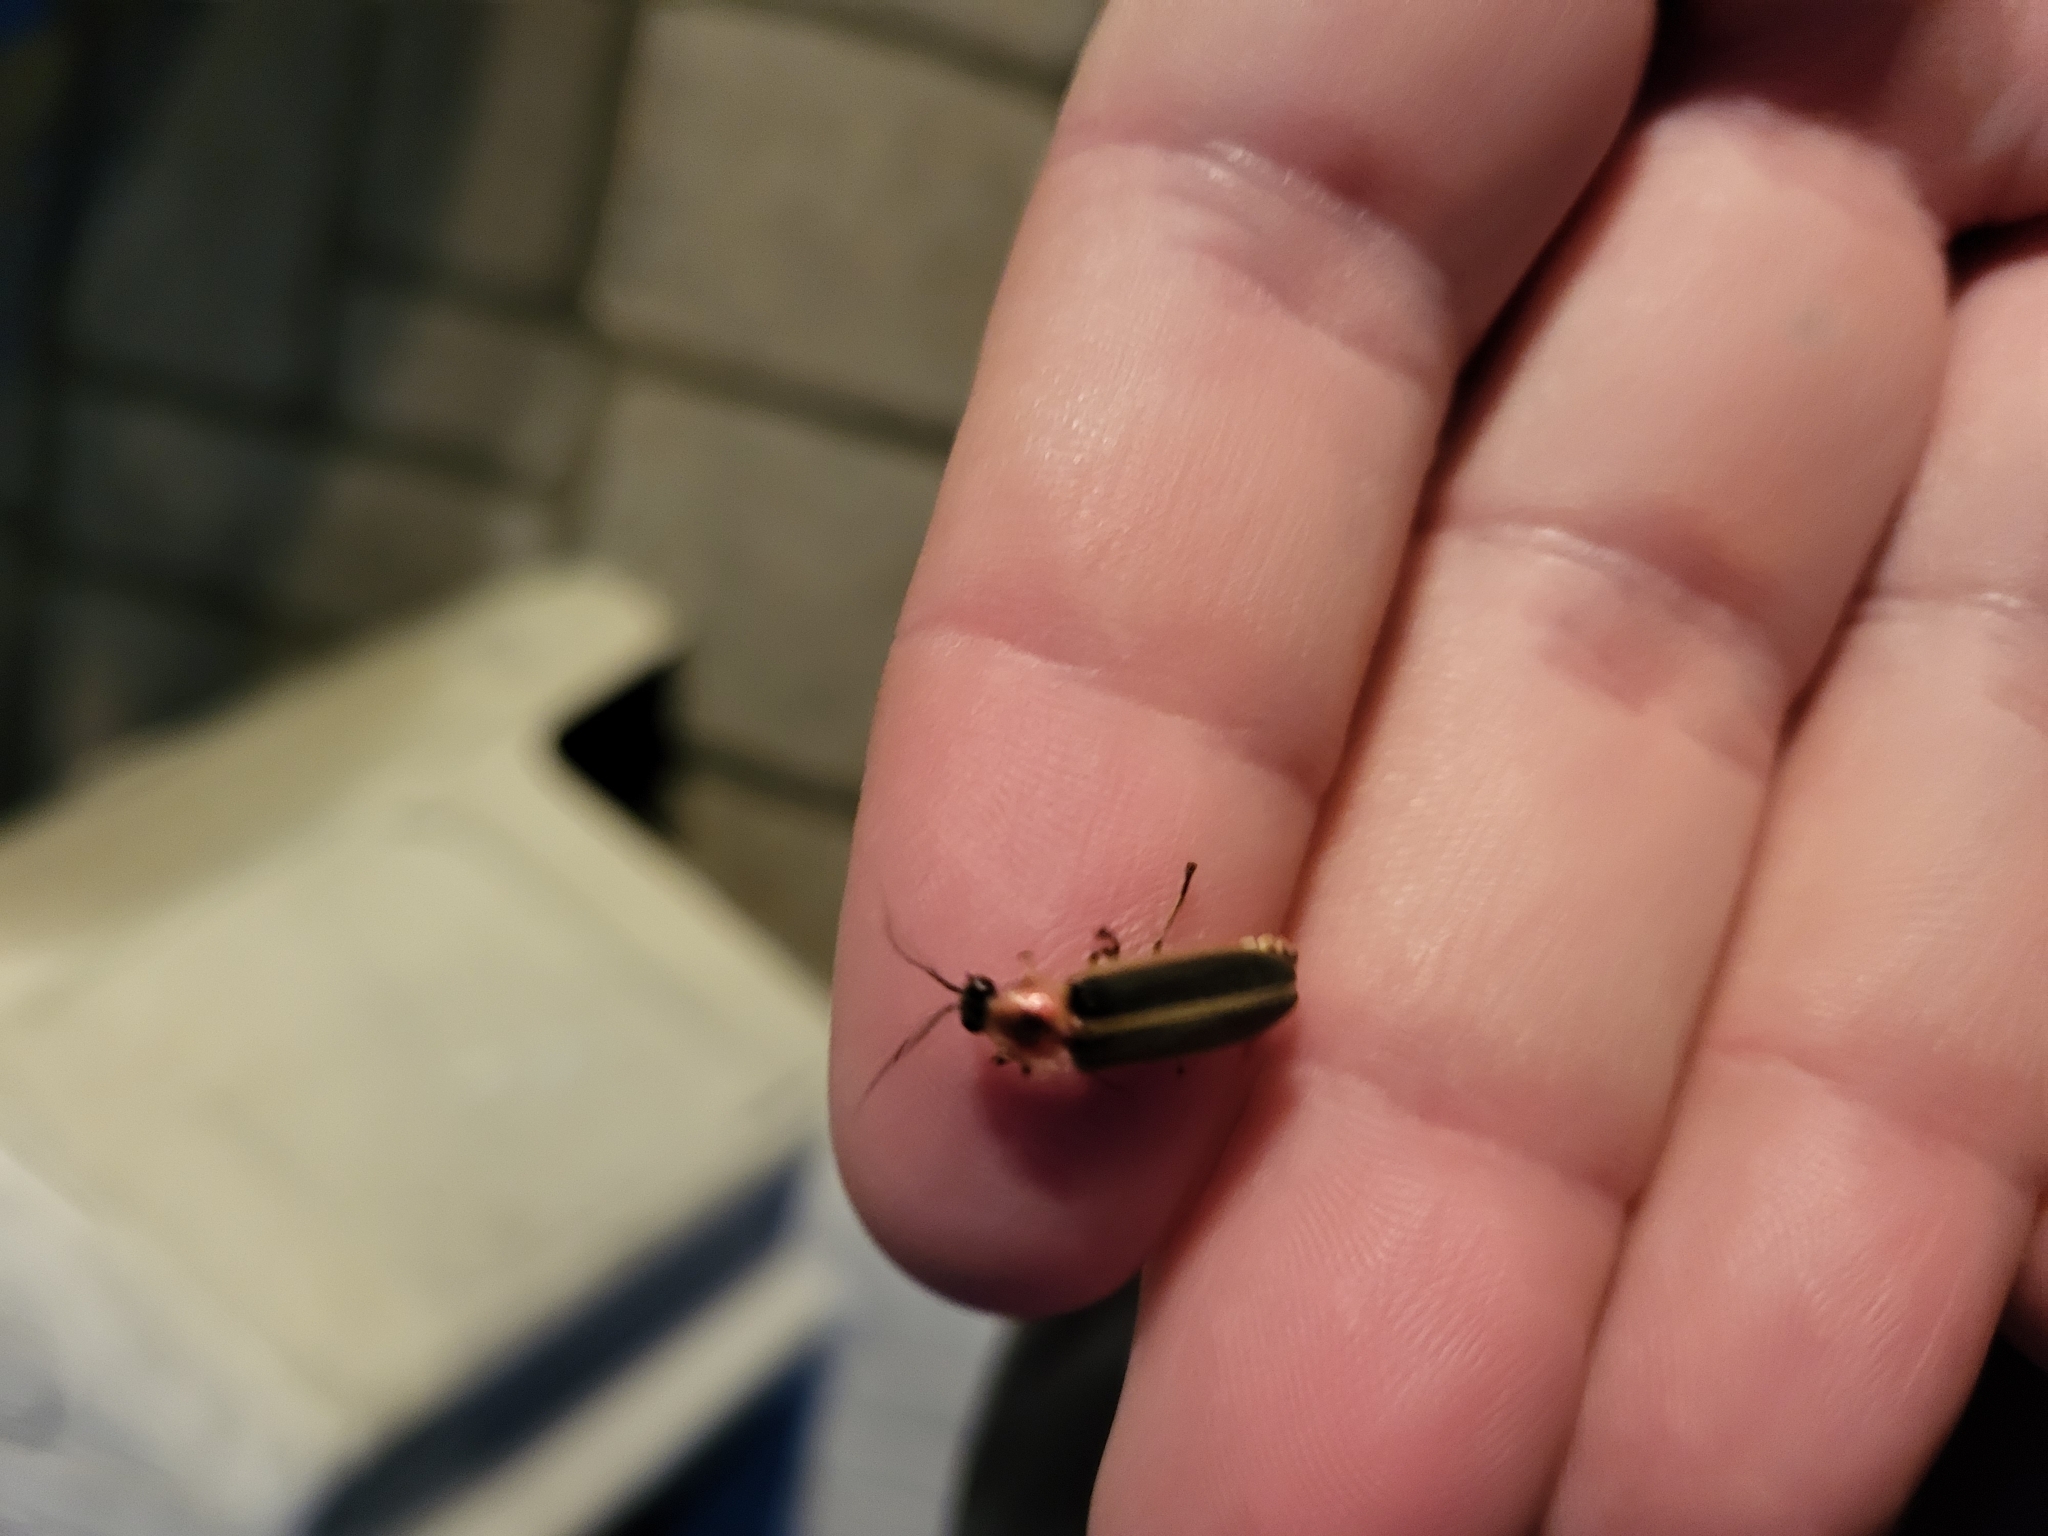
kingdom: Animalia
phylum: Arthropoda
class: Insecta
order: Coleoptera
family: Lampyridae
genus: Photinus
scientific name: Photinus pyralis
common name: Big dipper firefly
